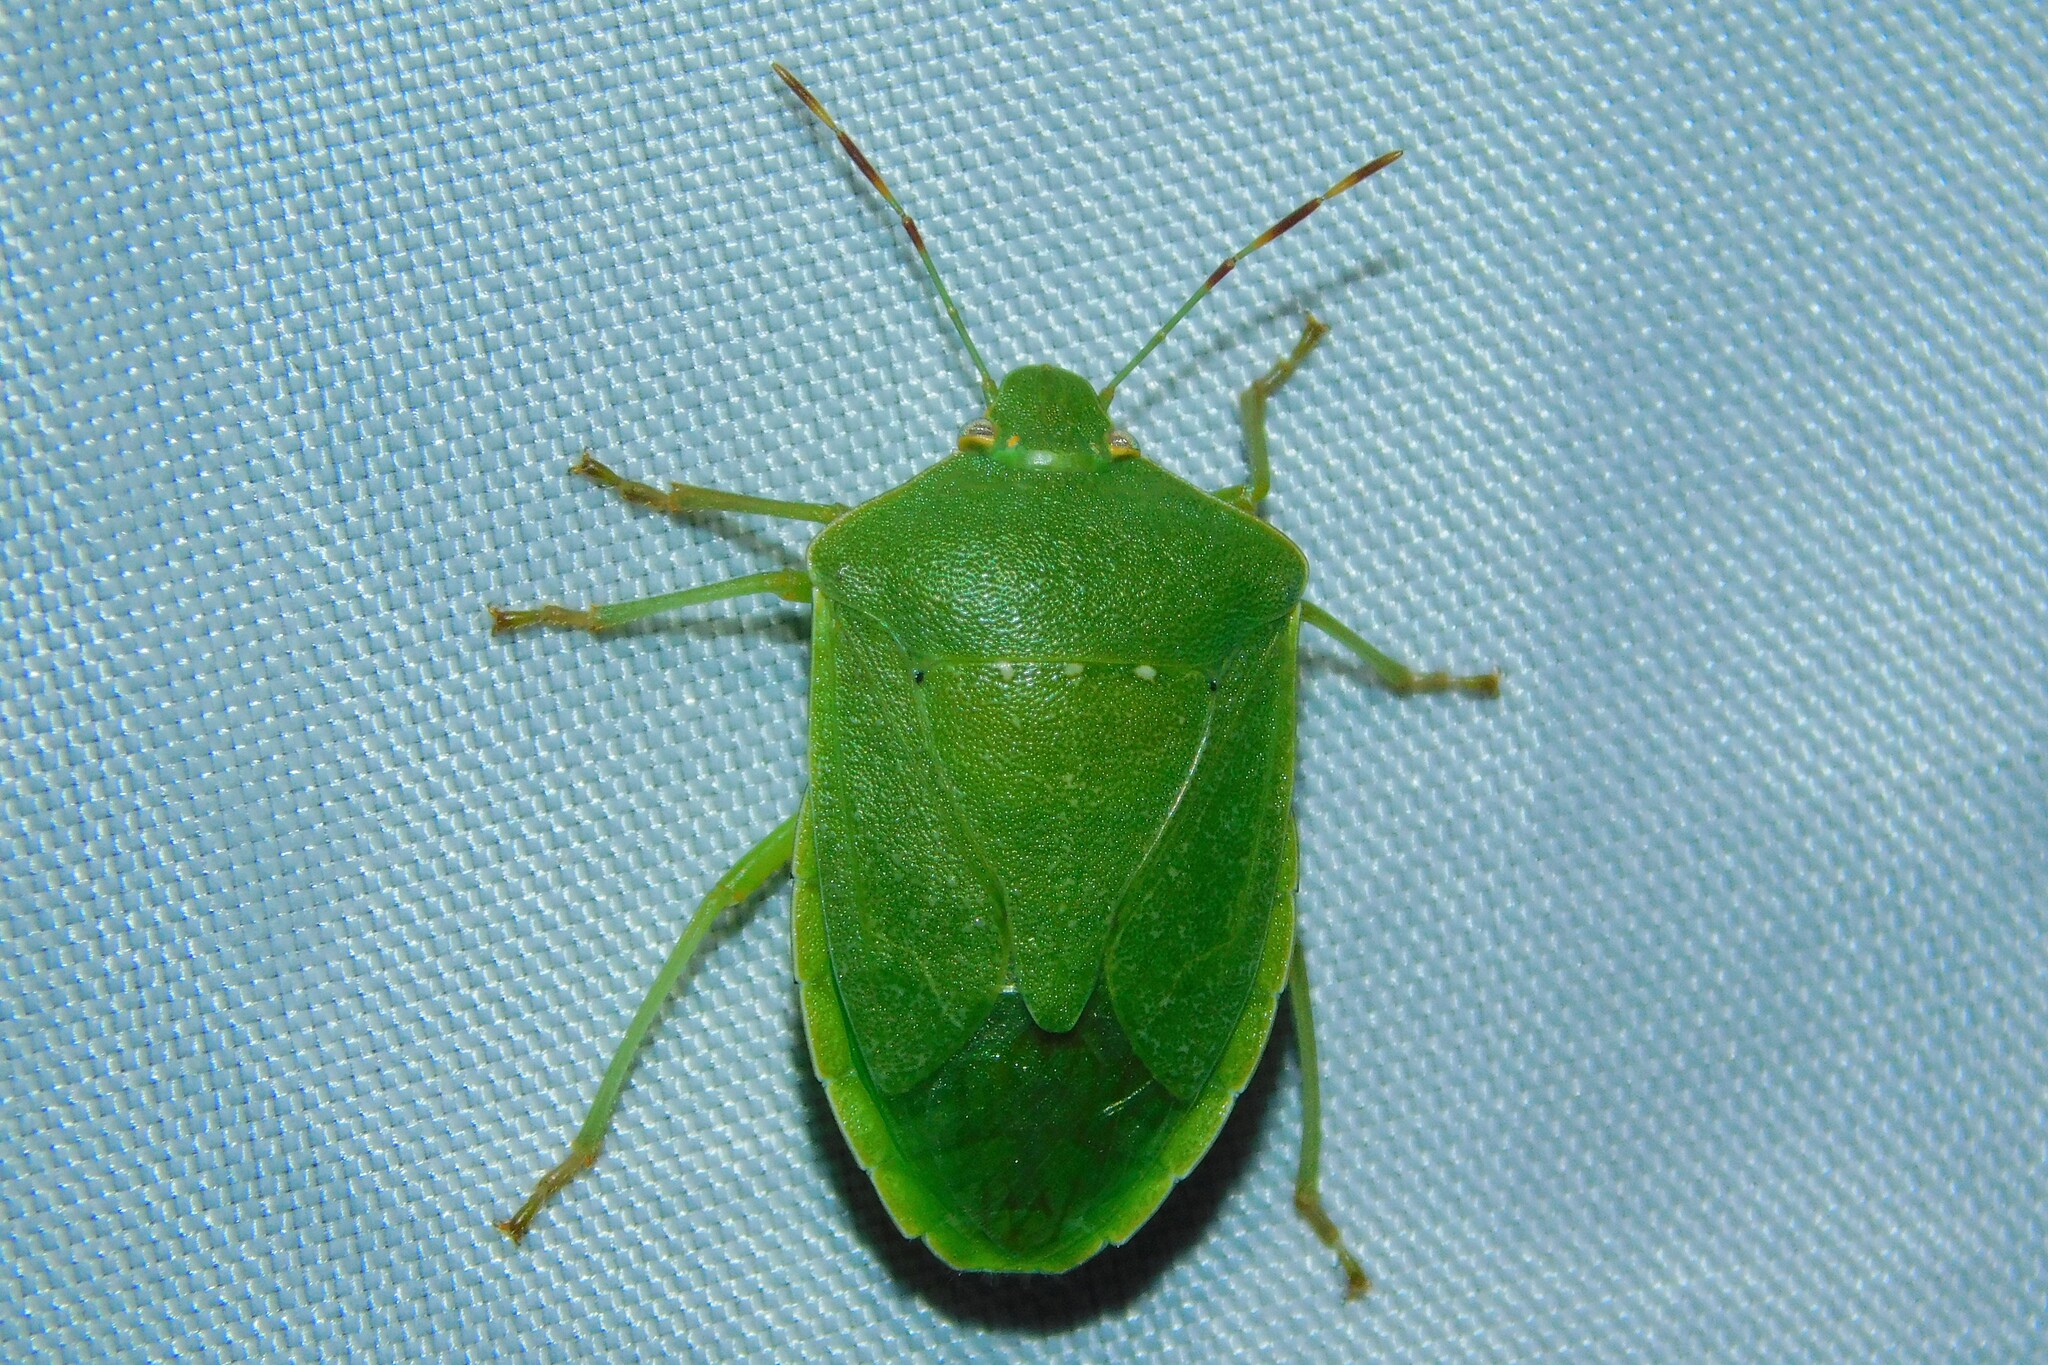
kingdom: Animalia
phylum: Arthropoda
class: Insecta
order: Hemiptera
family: Pentatomidae
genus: Nezara
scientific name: Nezara viridula
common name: Southern green stink bug
